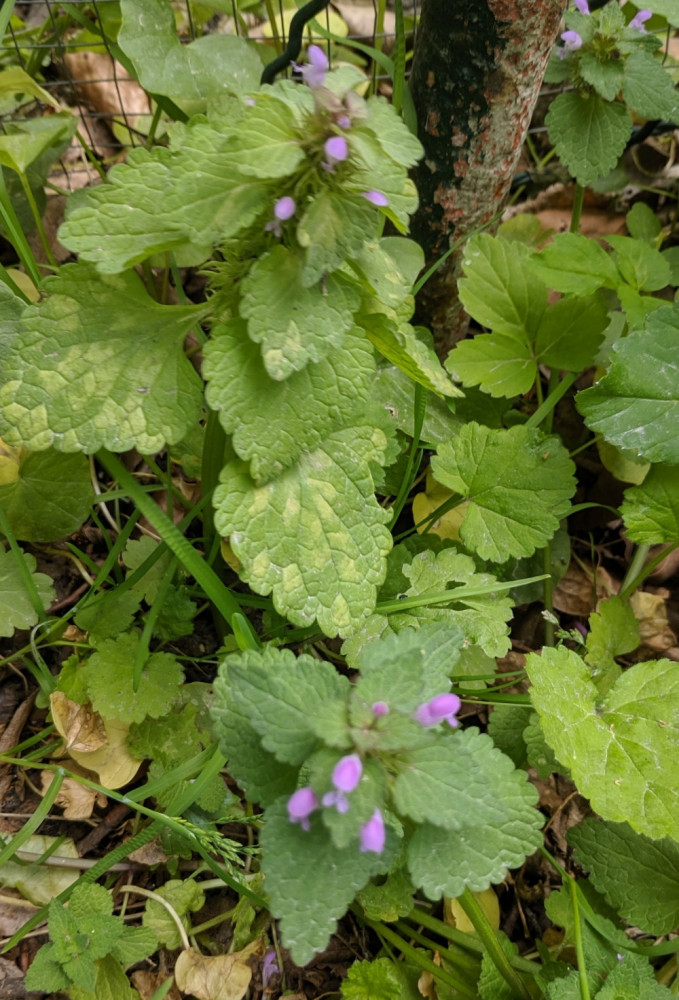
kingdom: Plantae
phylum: Tracheophyta
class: Magnoliopsida
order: Lamiales
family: Lamiaceae
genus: Lamium
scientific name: Lamium purpureum
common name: Red dead-nettle
